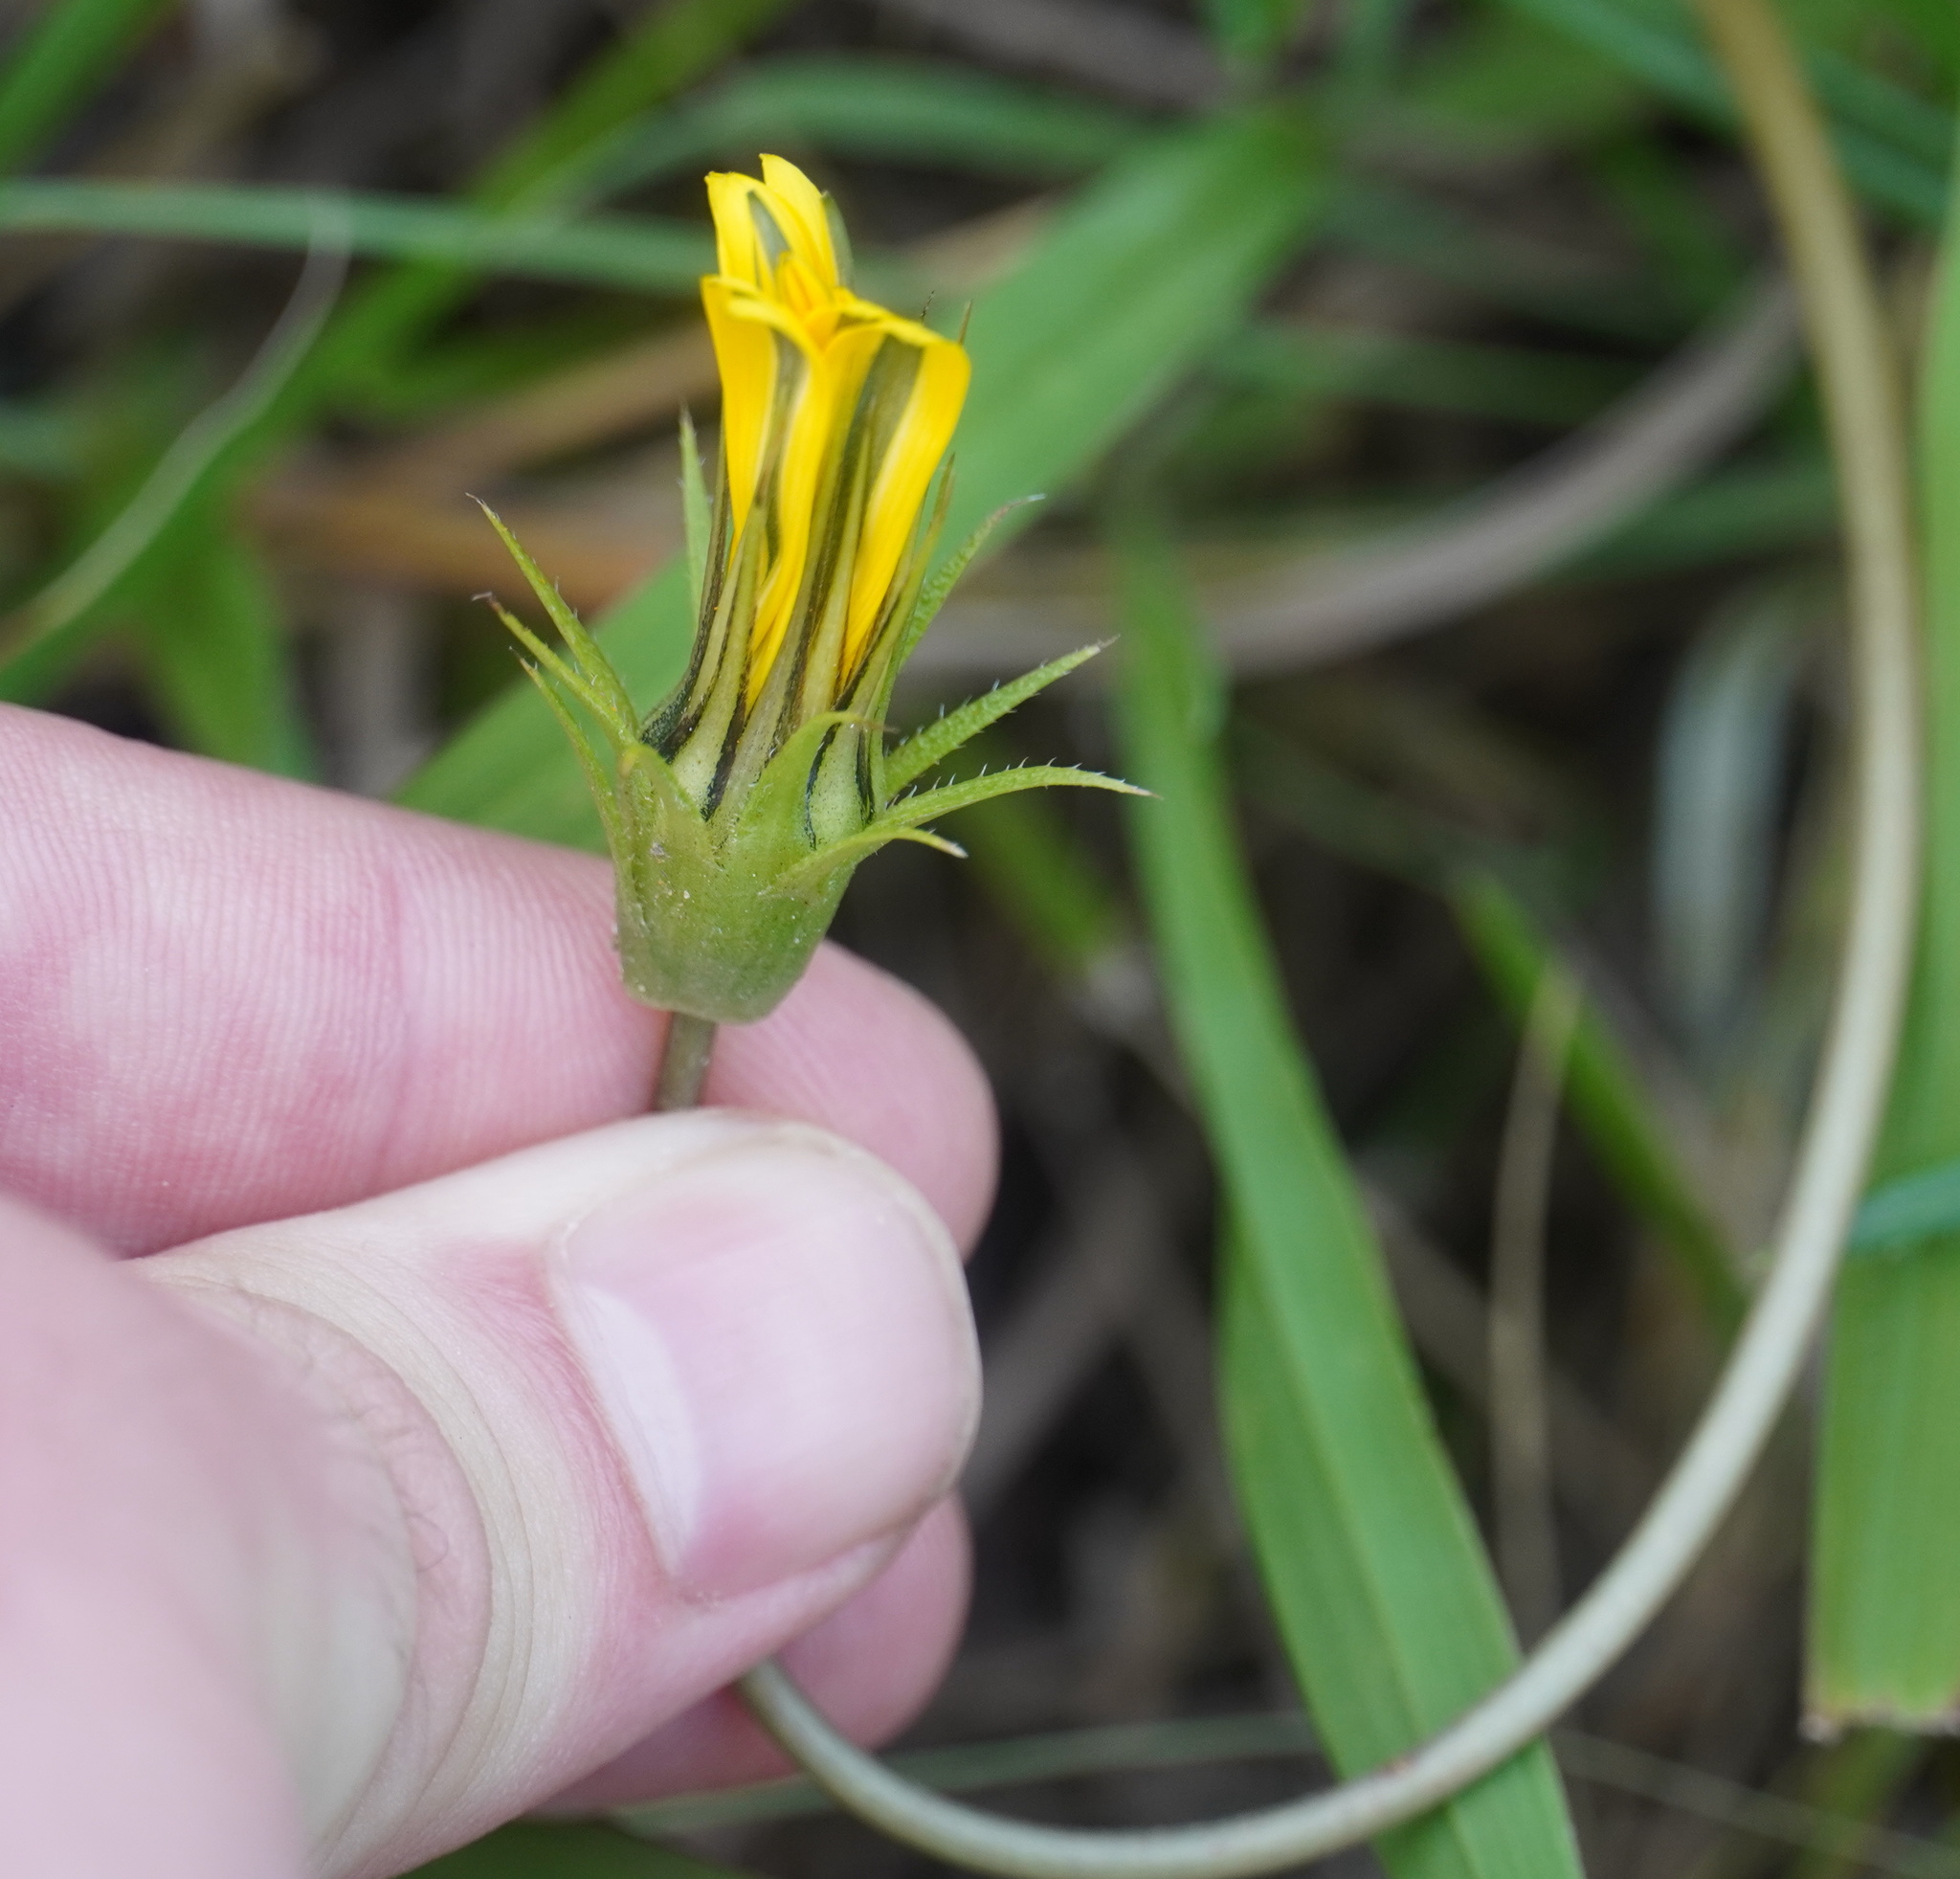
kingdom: Plantae
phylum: Tracheophyta
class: Magnoliopsida
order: Asterales
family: Asteraceae
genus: Gazania
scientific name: Gazania linearis
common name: Treasureflower
